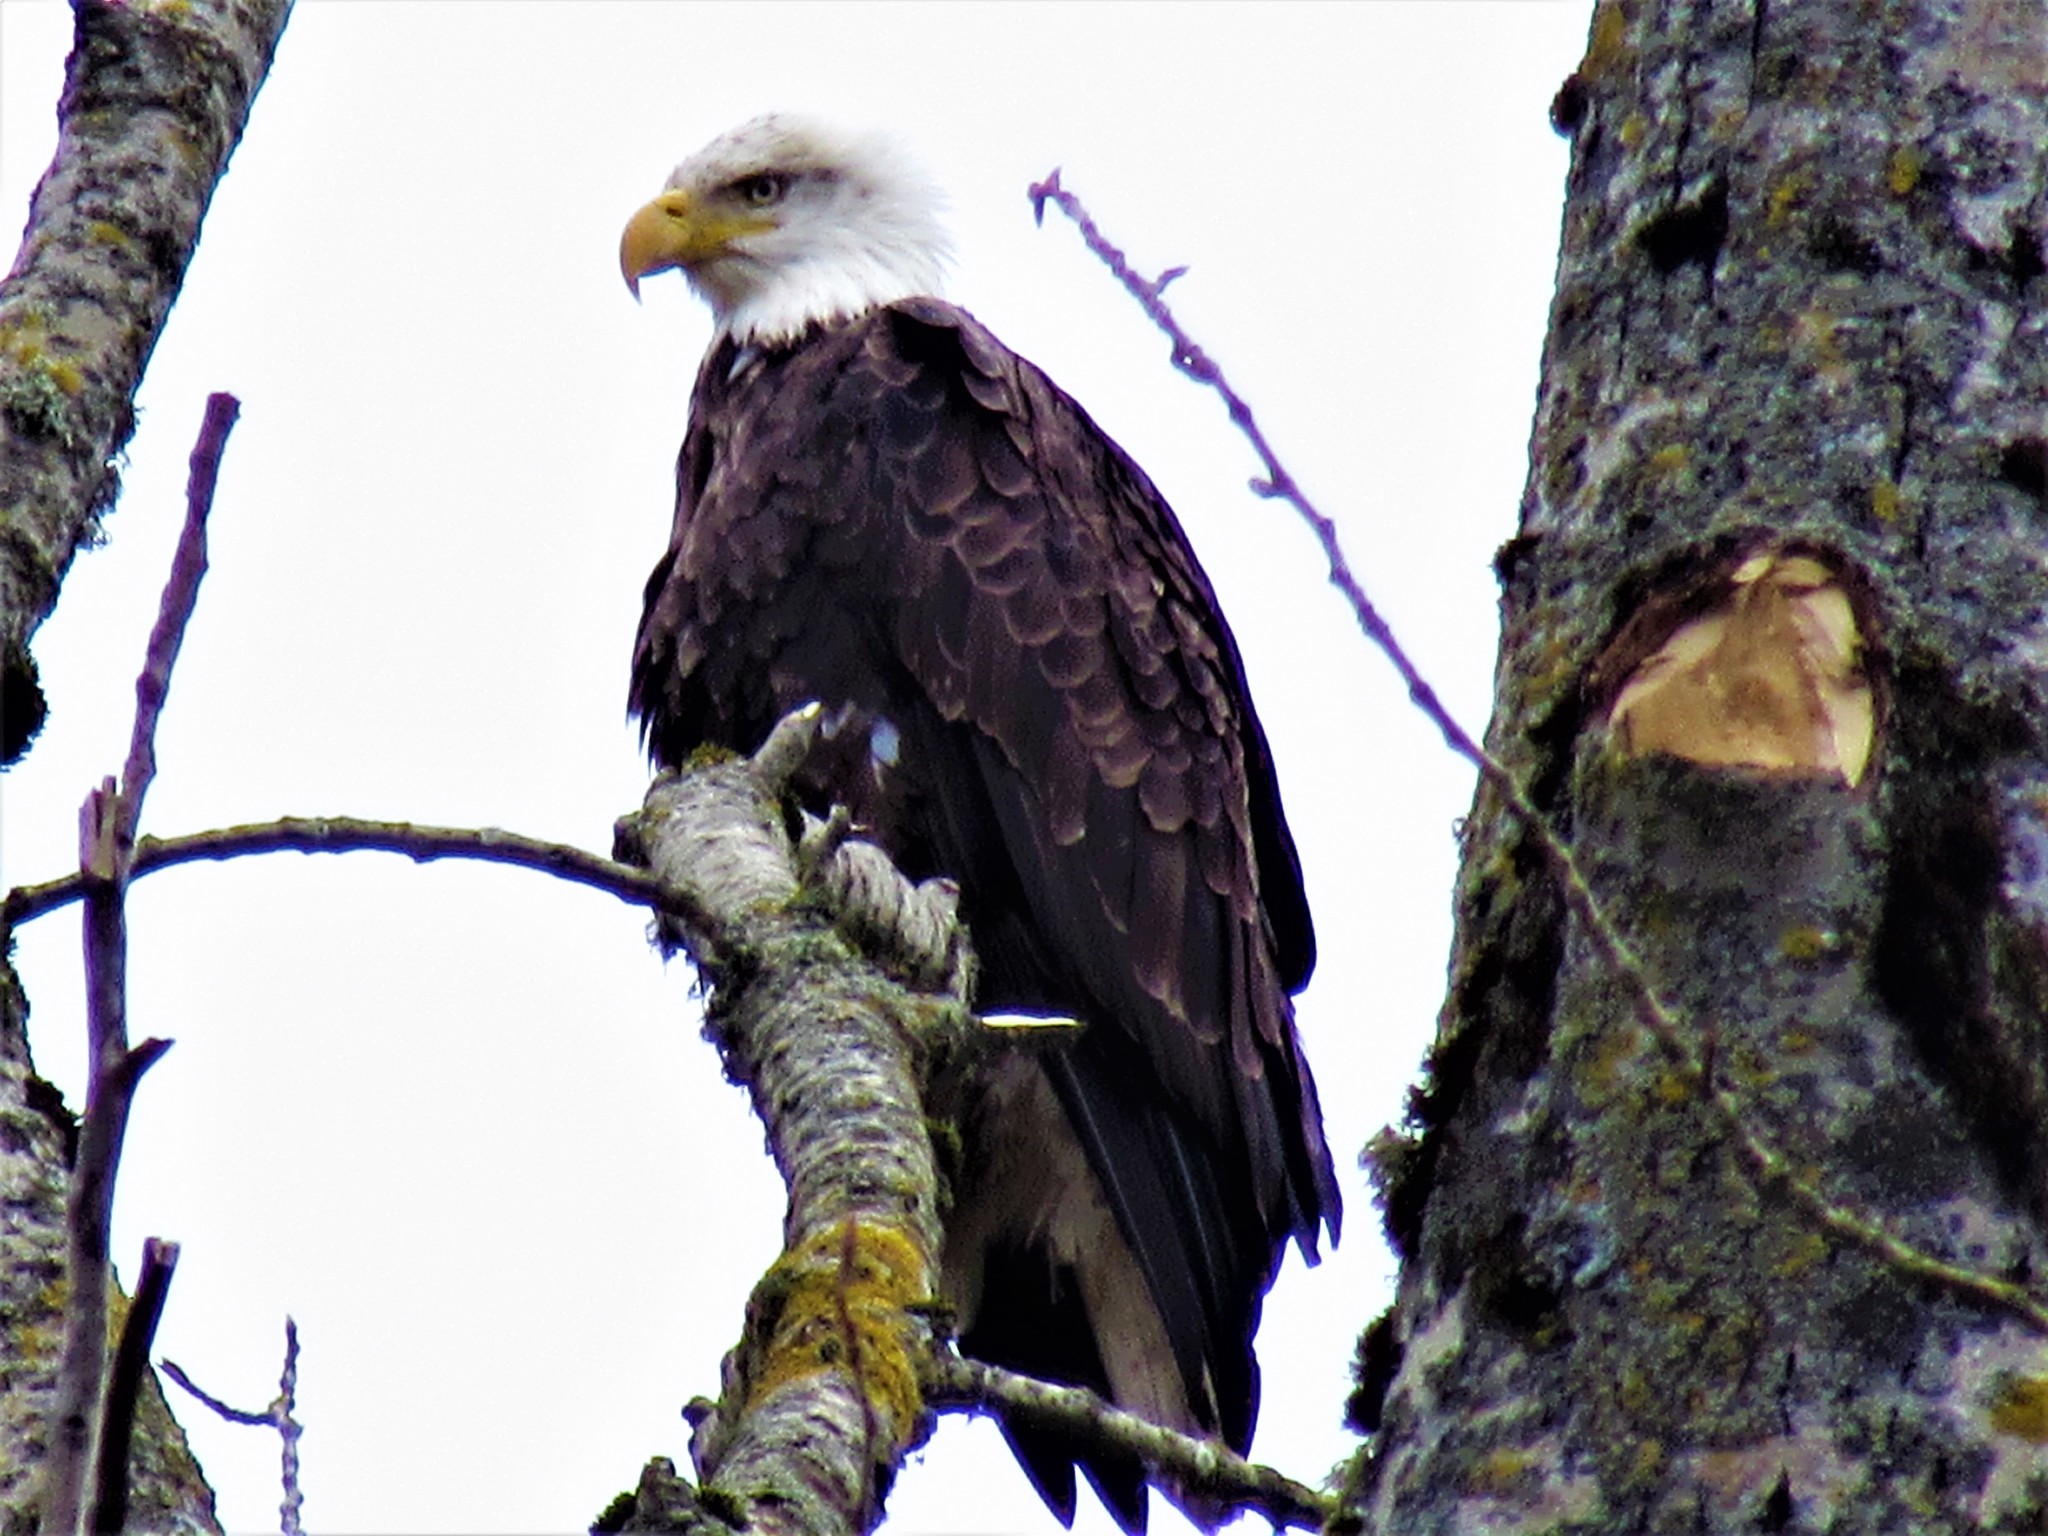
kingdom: Animalia
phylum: Chordata
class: Aves
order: Accipitriformes
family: Accipitridae
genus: Haliaeetus
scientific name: Haliaeetus leucocephalus
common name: Bald eagle
